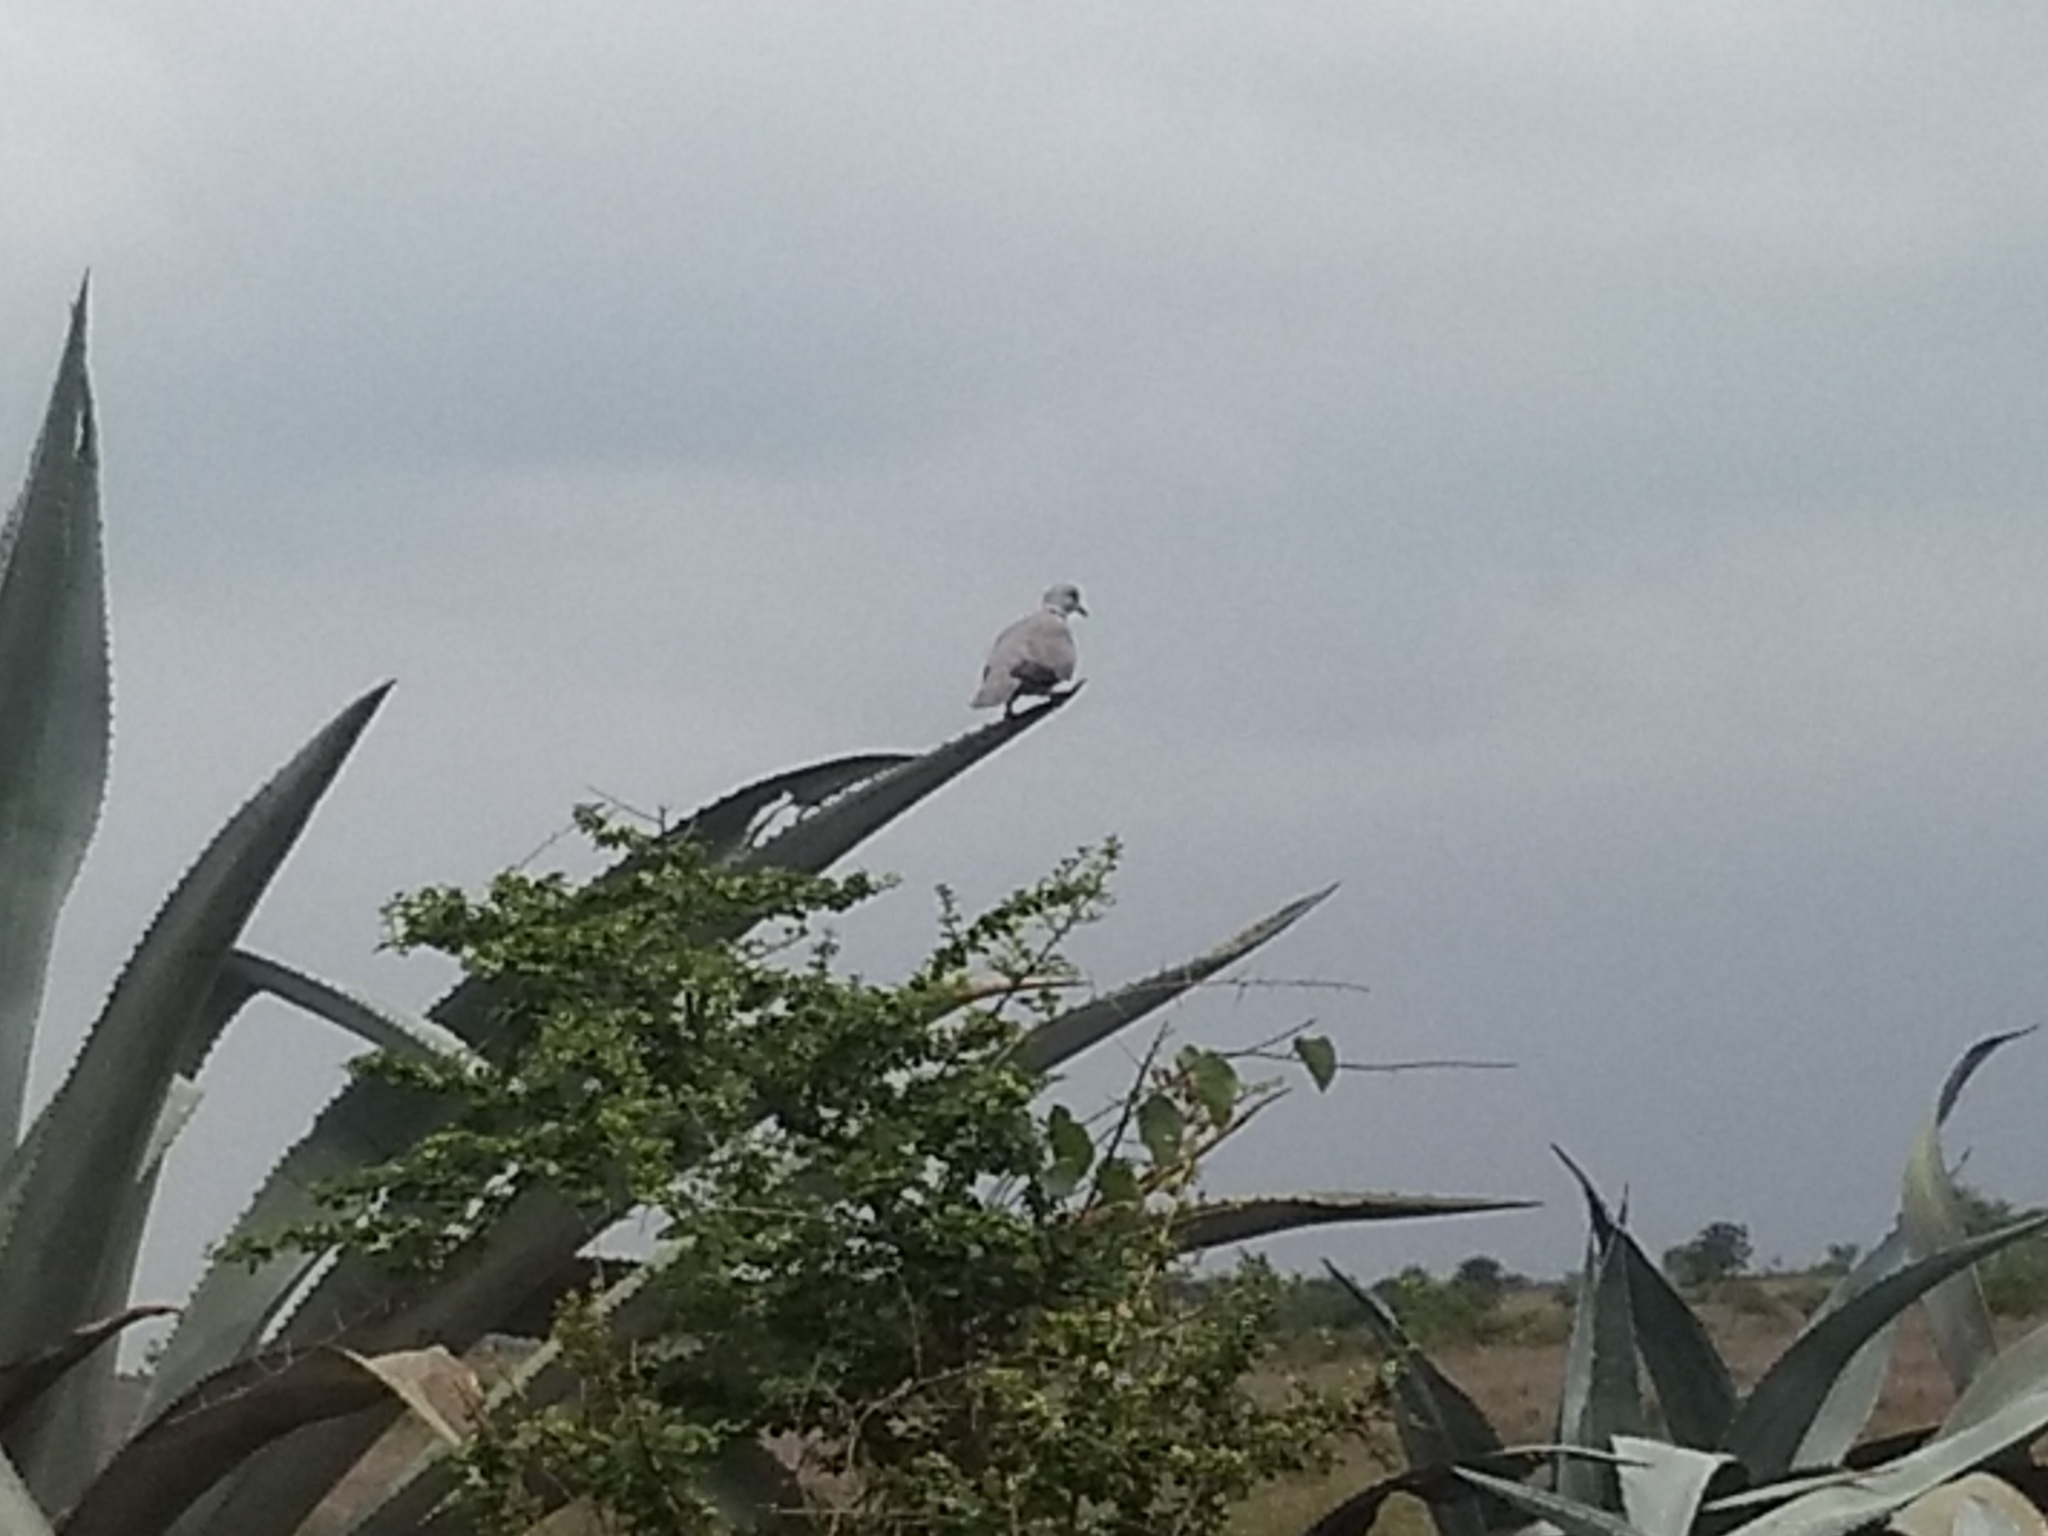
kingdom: Animalia
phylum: Chordata
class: Aves
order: Columbiformes
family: Columbidae
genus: Streptopelia
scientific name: Streptopelia decaocto
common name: Eurasian collared dove
